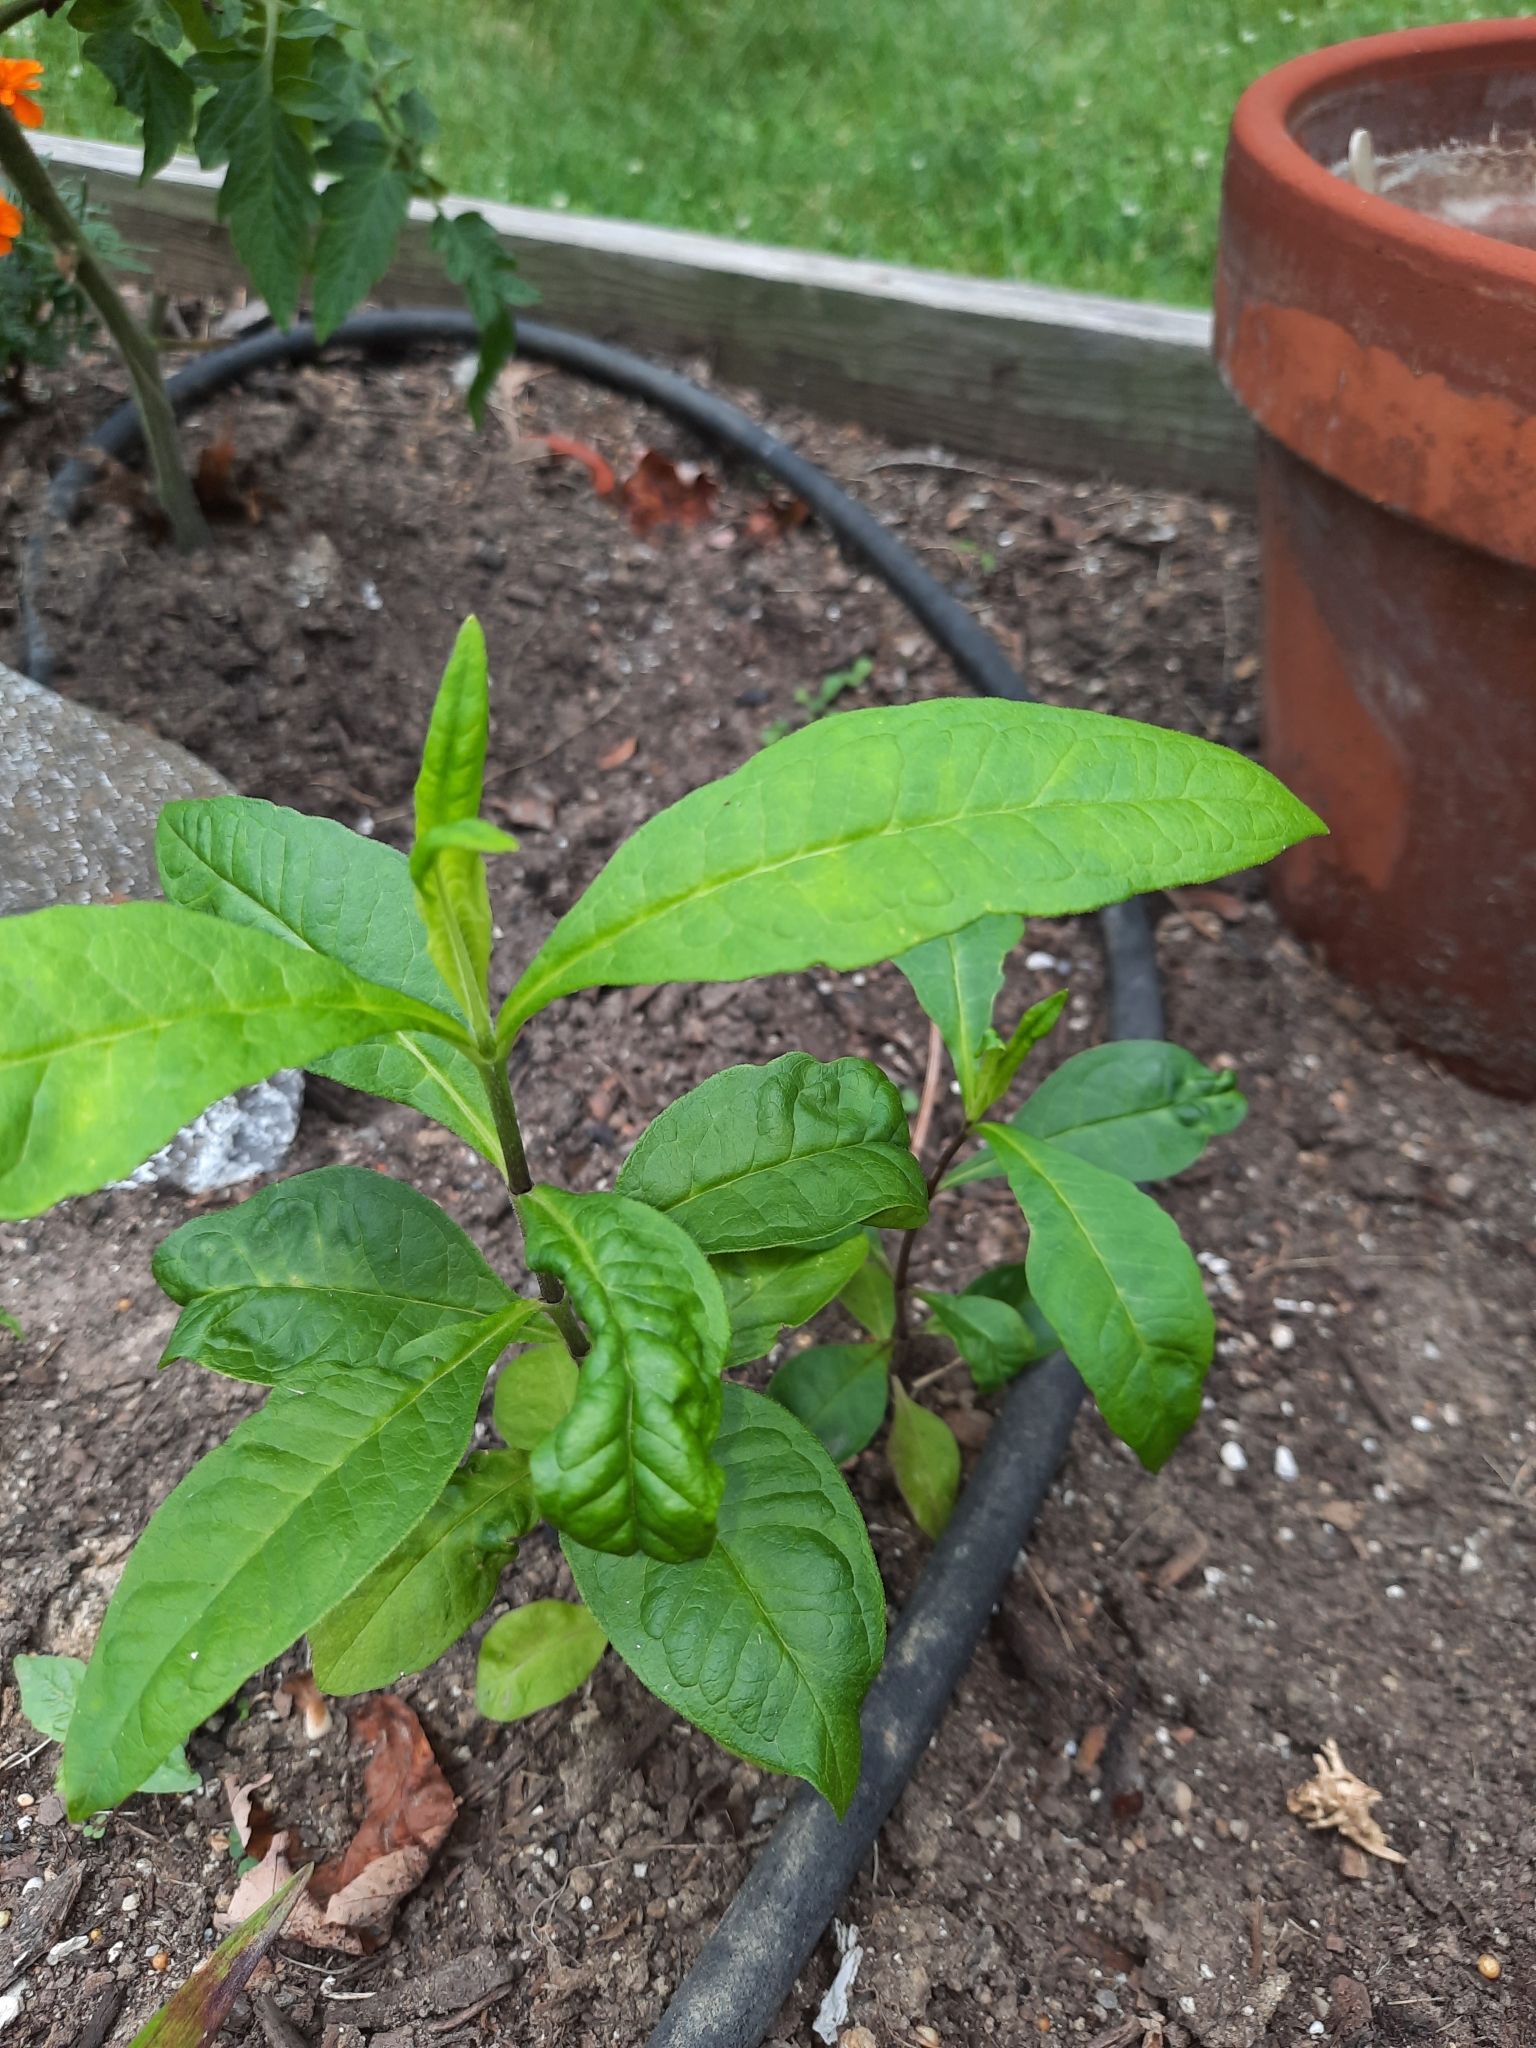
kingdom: Plantae
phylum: Tracheophyta
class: Magnoliopsida
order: Ericales
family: Polemoniaceae
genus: Phlox
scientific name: Phlox paniculata
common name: Fall phlox
